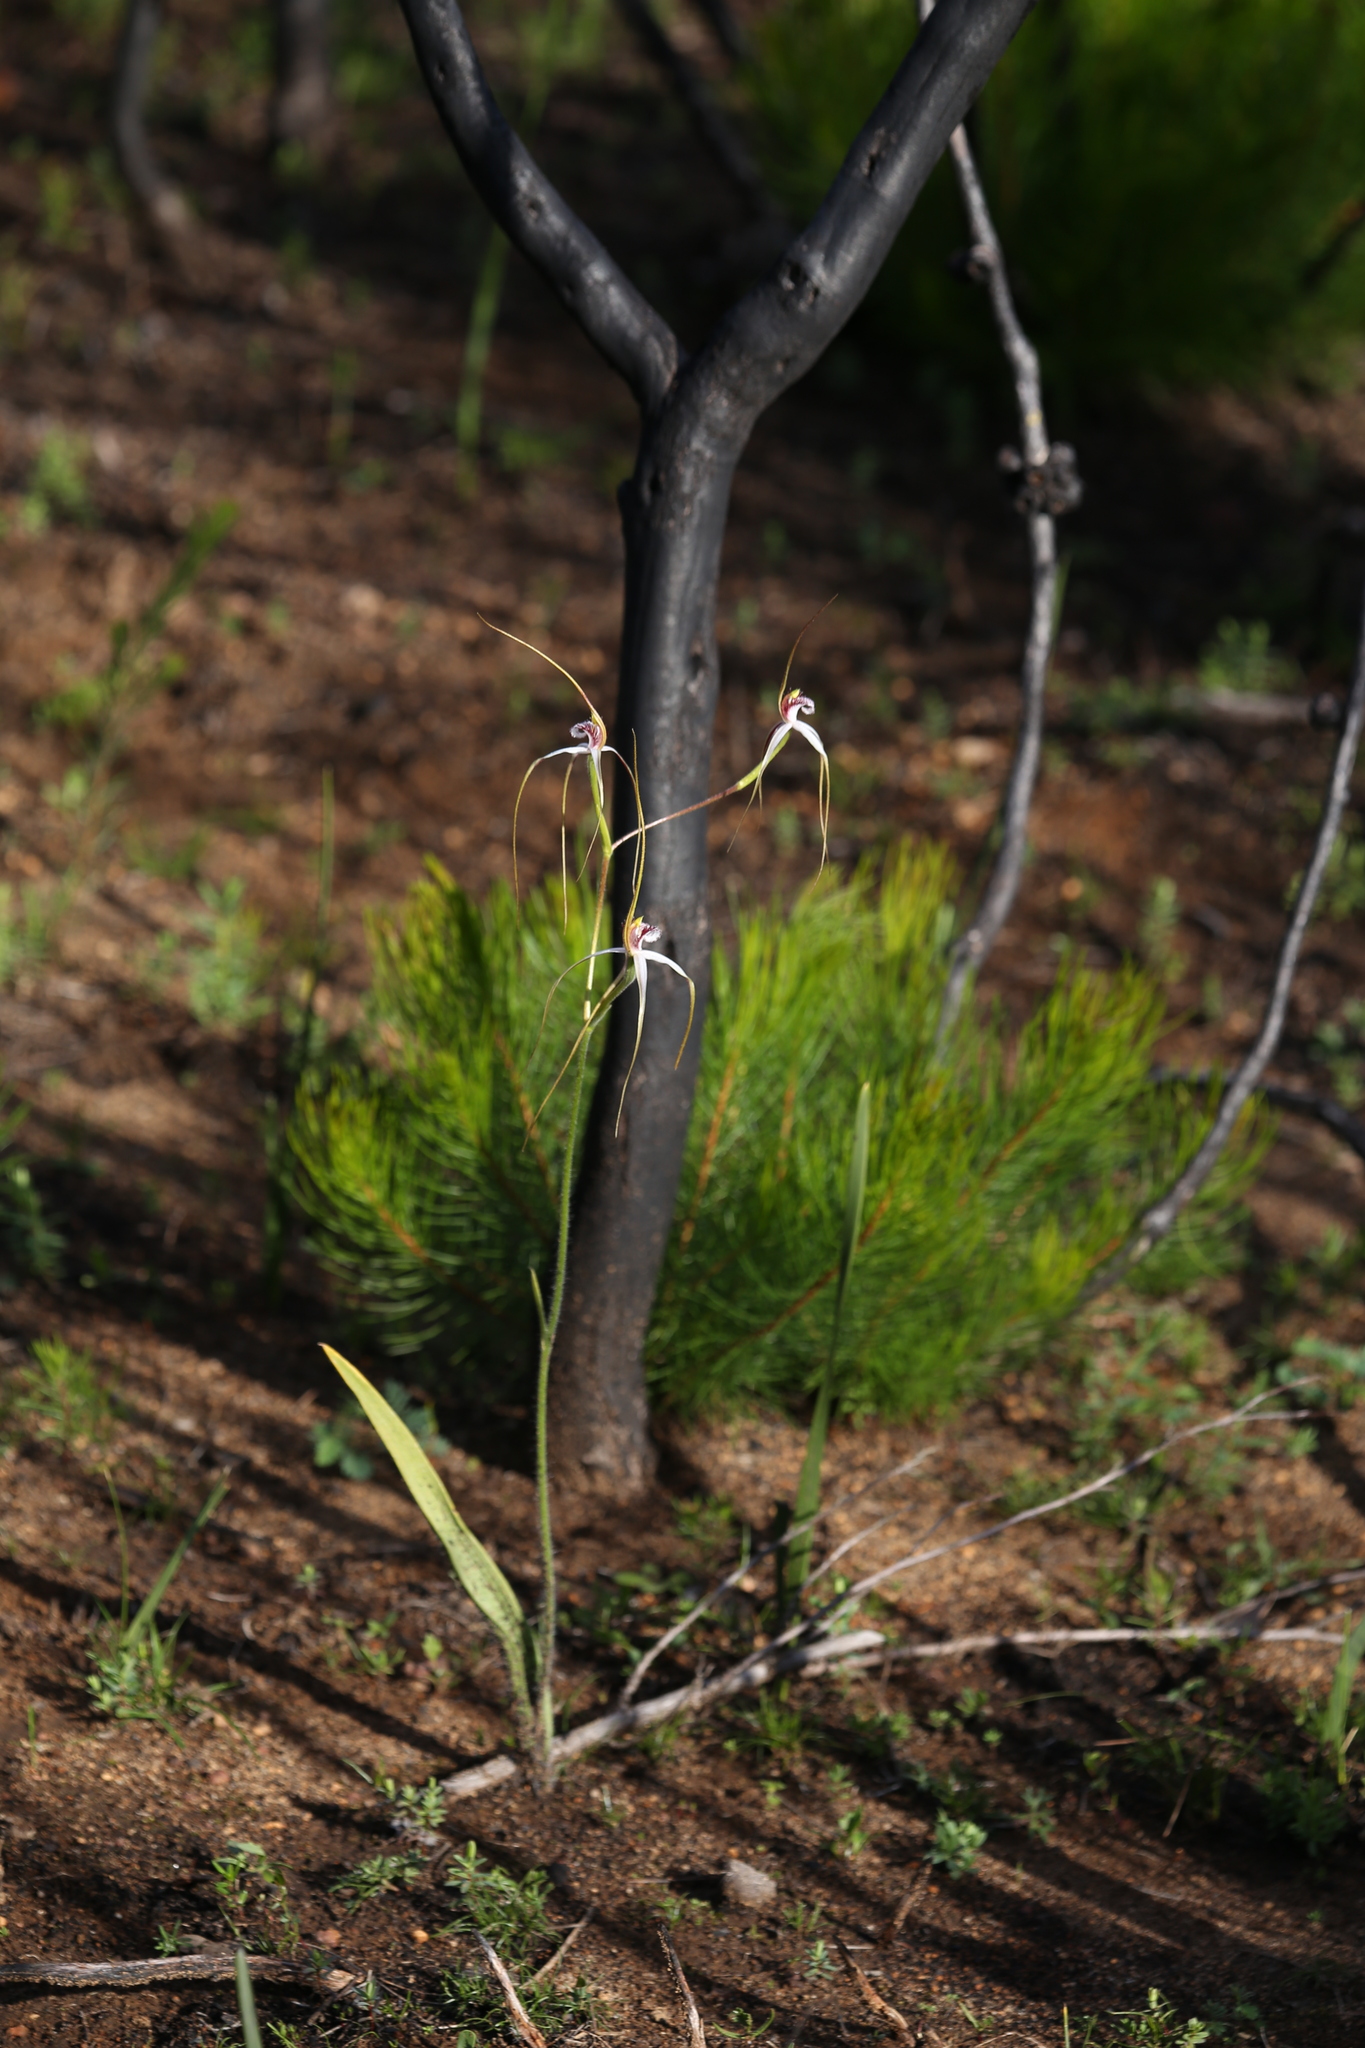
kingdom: Plantae
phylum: Tracheophyta
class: Liliopsida
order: Asparagales
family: Orchidaceae
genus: Caladenia
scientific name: Caladenia longicauda
